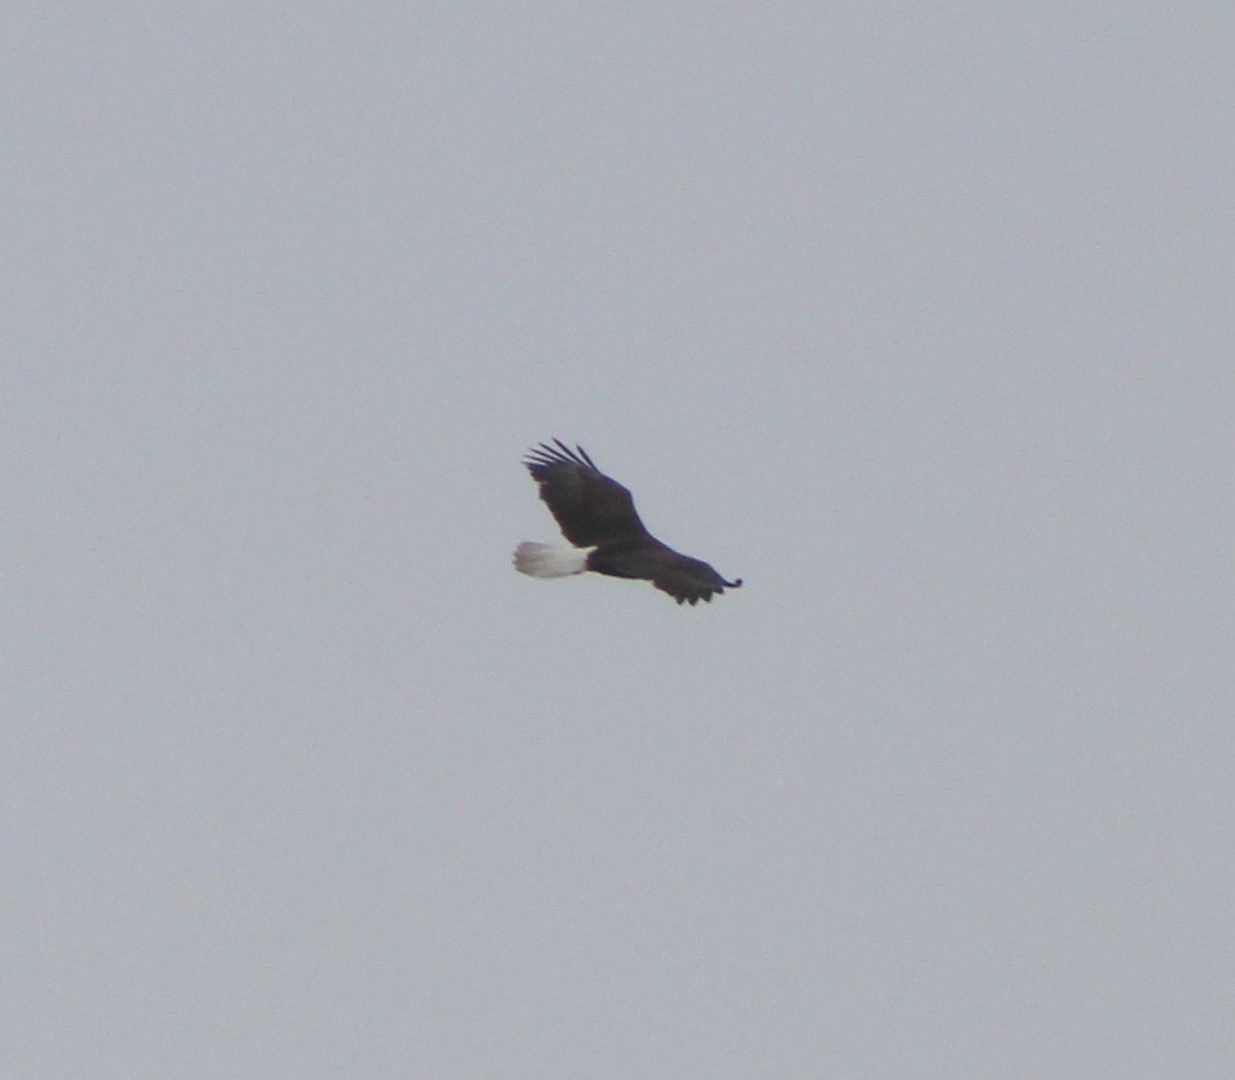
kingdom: Animalia
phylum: Chordata
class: Aves
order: Accipitriformes
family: Accipitridae
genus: Haliaeetus
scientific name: Haliaeetus leucocephalus
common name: Bald eagle
